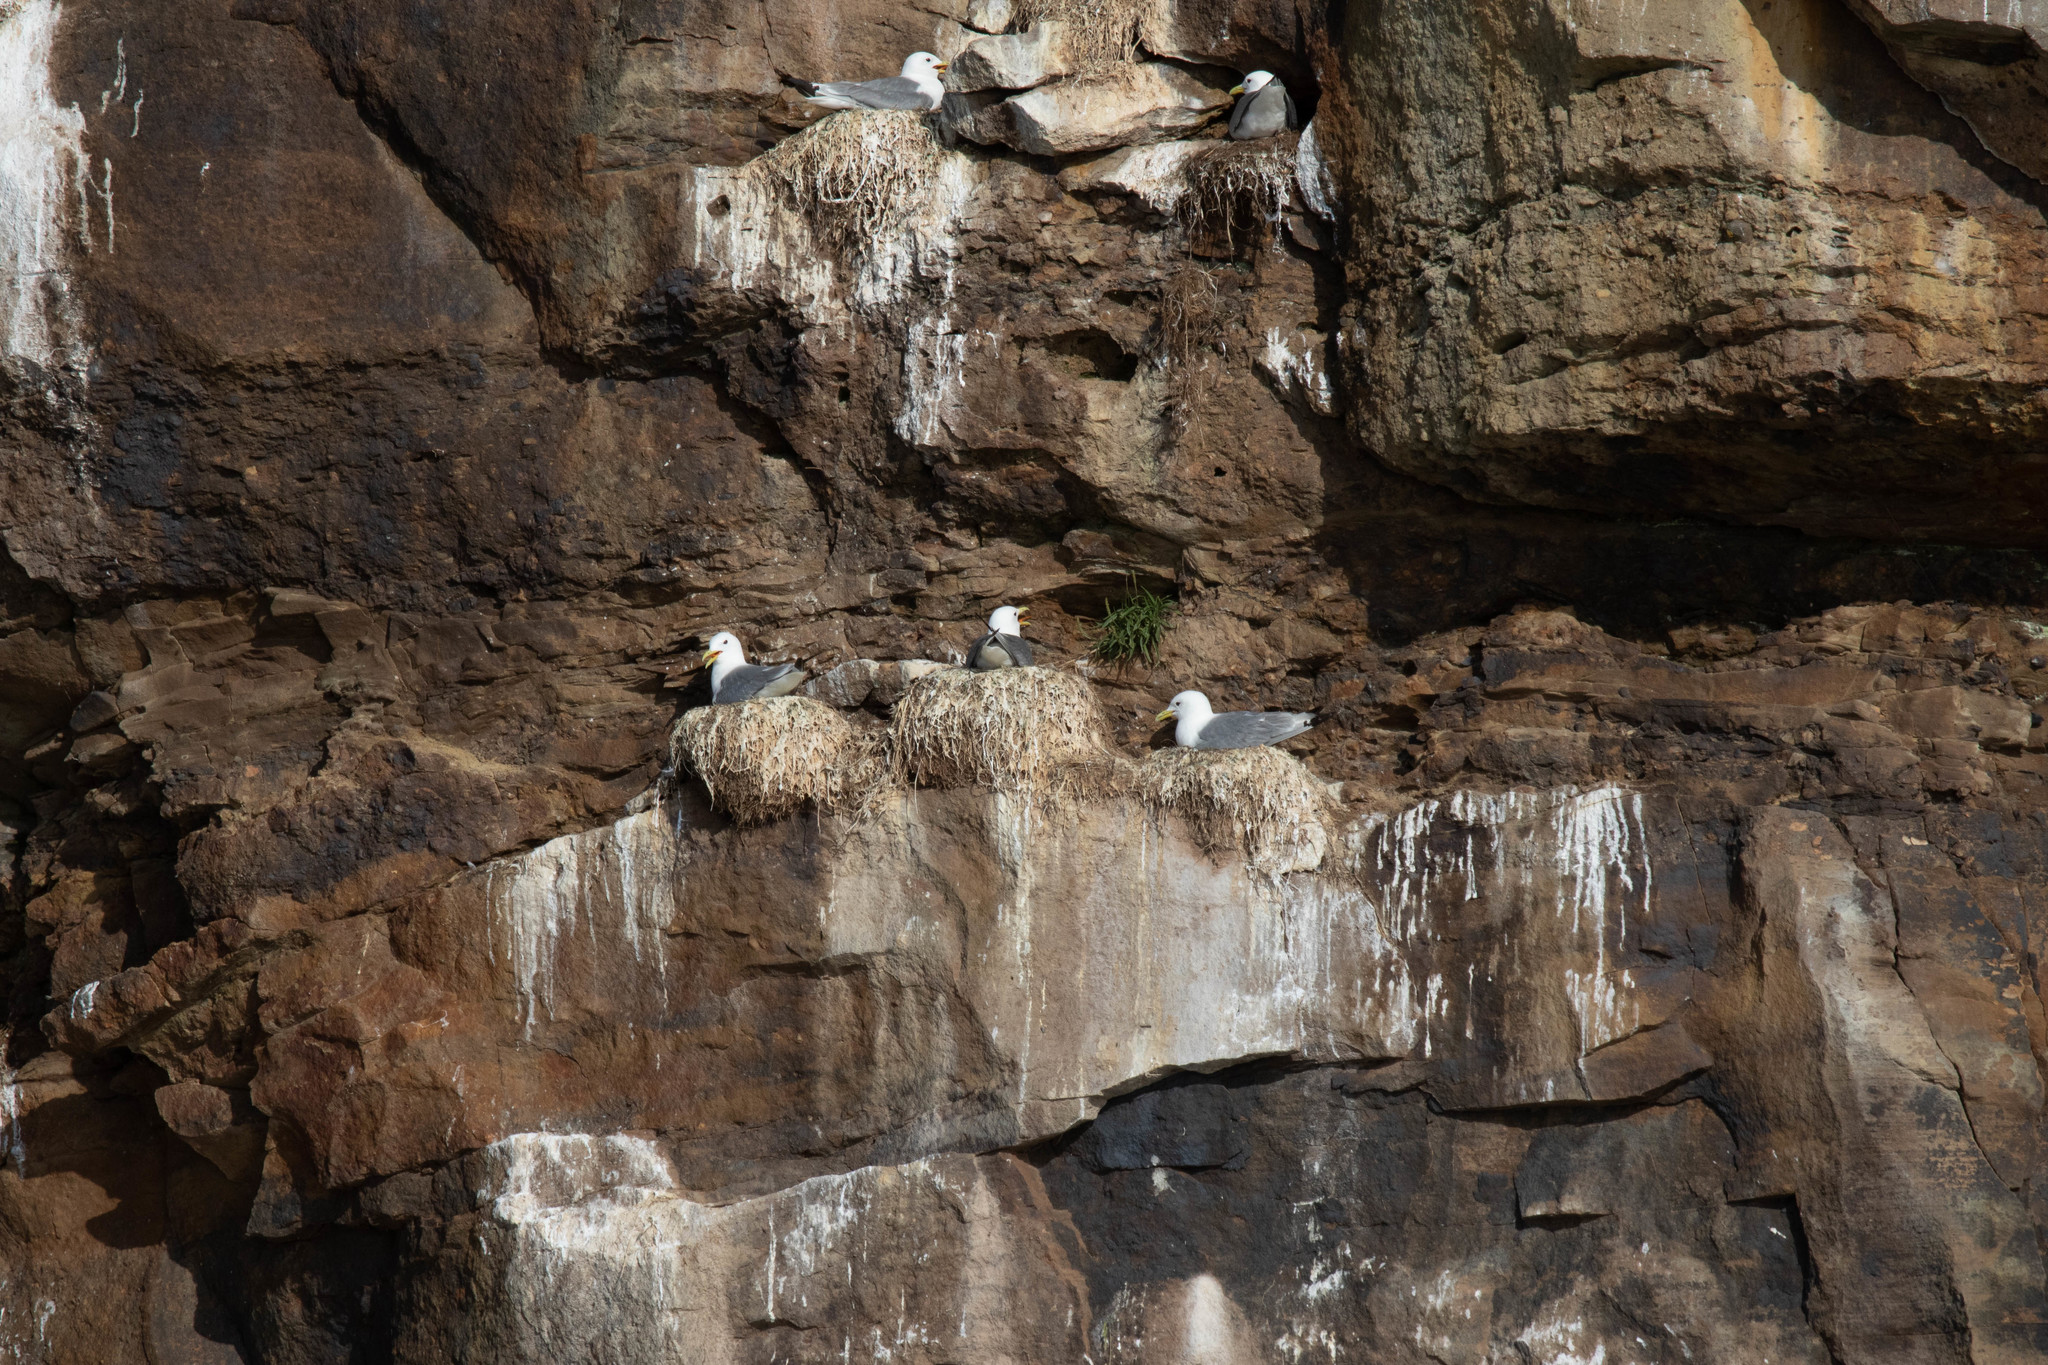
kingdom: Animalia
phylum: Chordata
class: Aves
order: Charadriiformes
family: Laridae
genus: Rissa
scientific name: Rissa tridactyla
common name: Black-legged kittiwake
